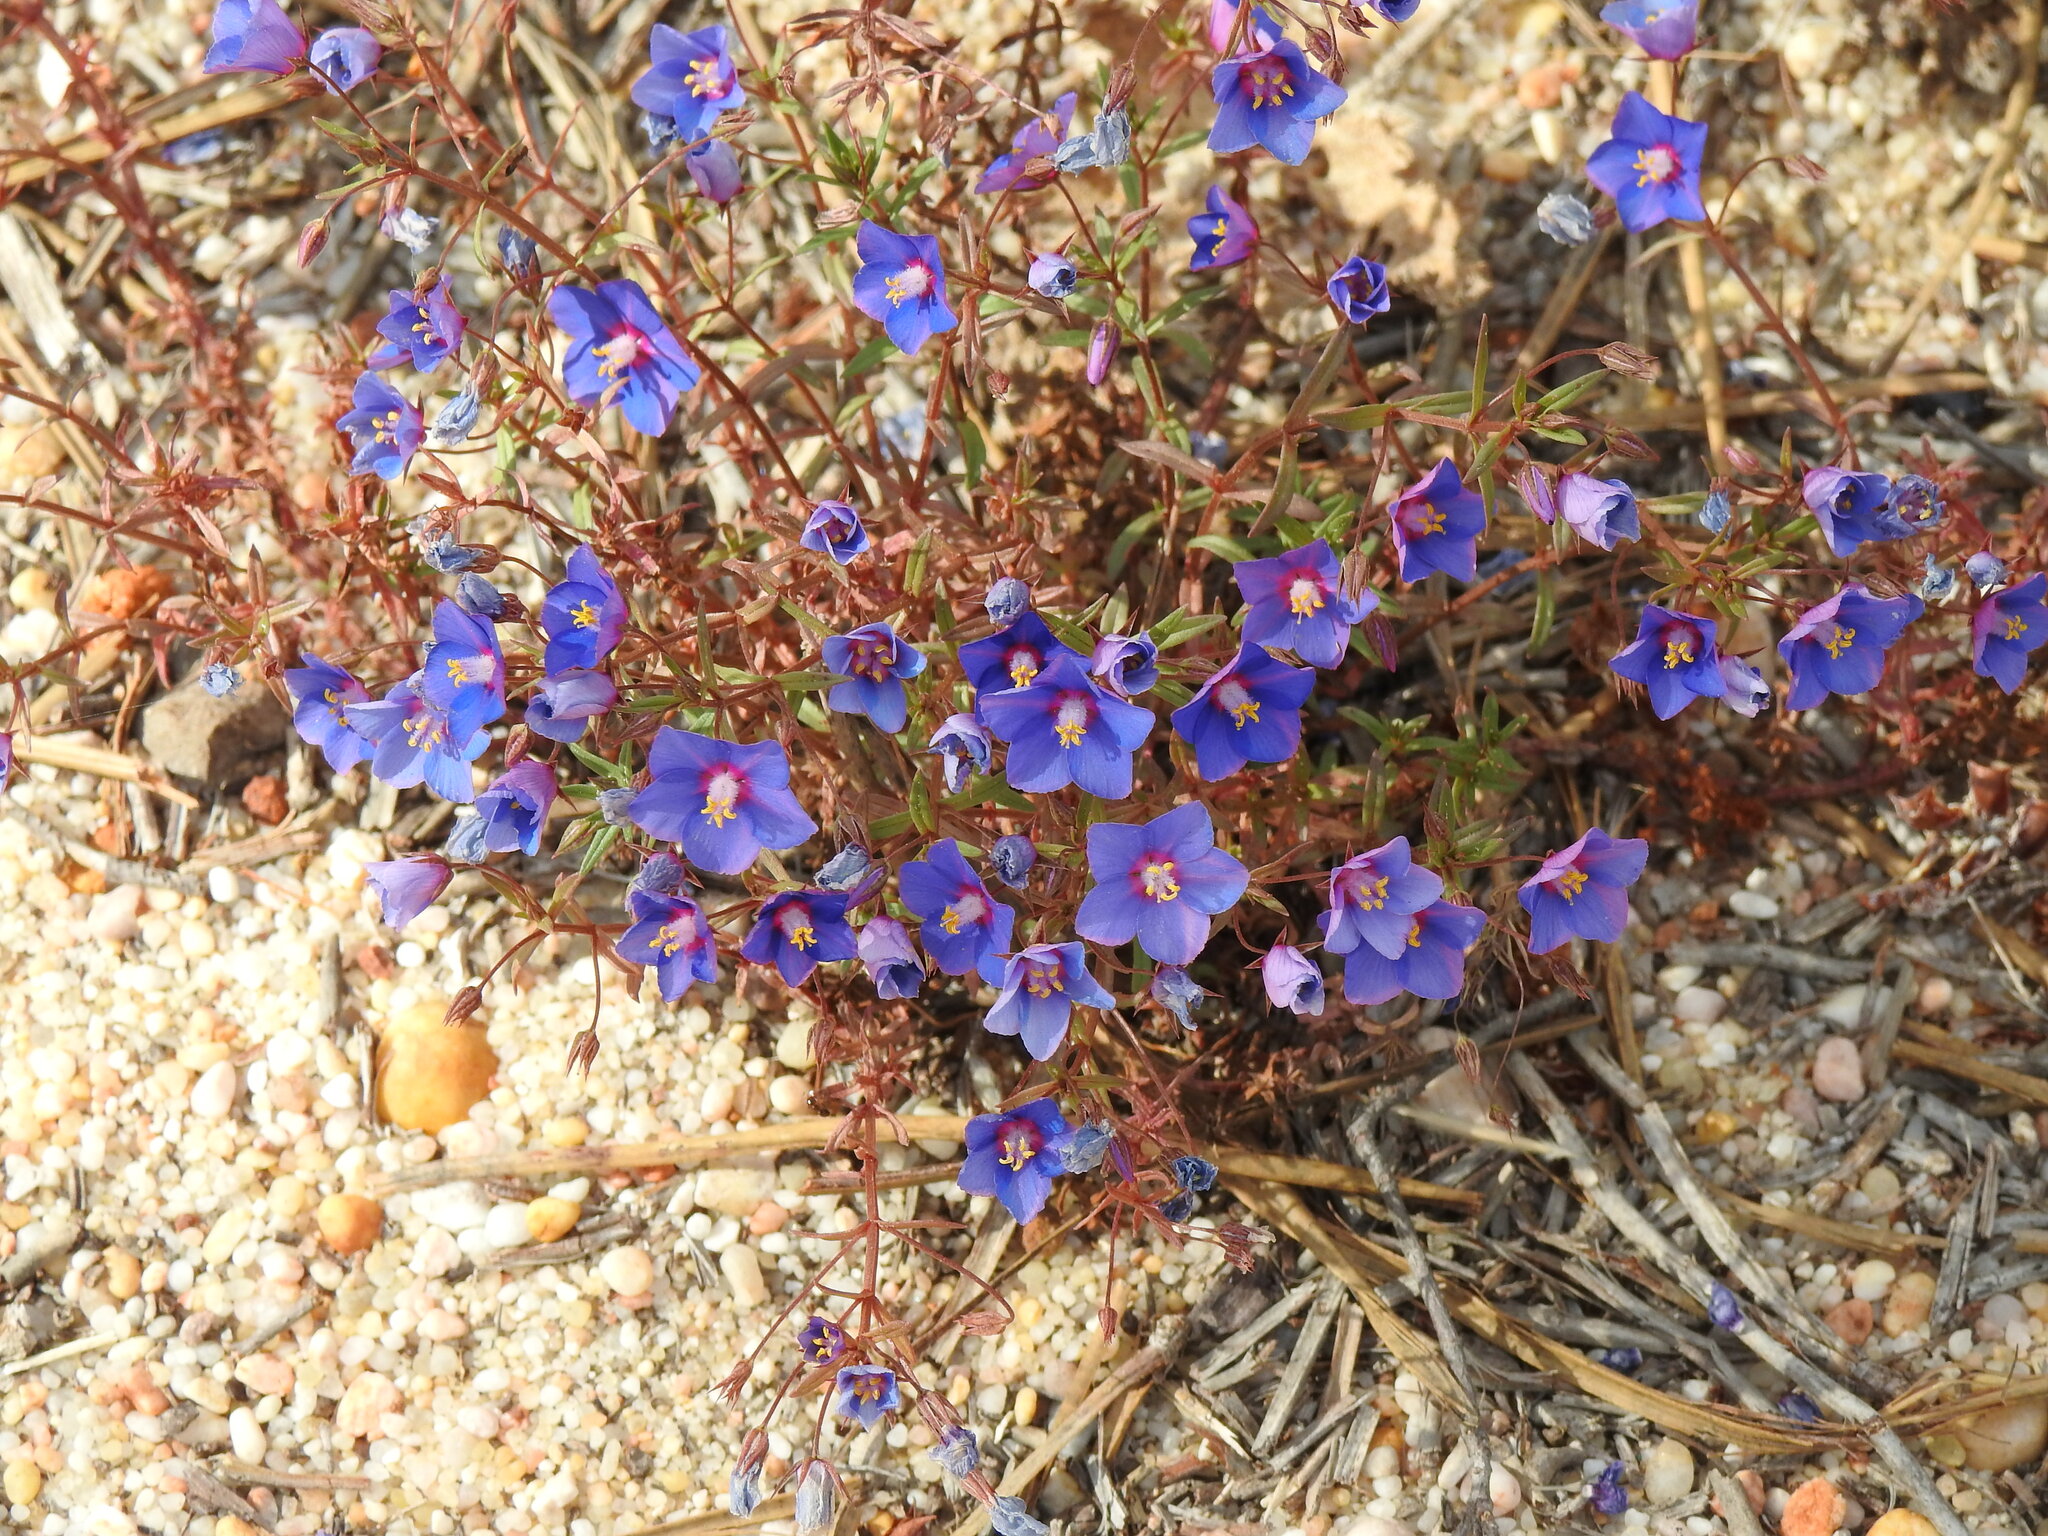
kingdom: Plantae
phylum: Tracheophyta
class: Magnoliopsida
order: Ericales
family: Primulaceae
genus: Lysimachia
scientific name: Lysimachia monelli
